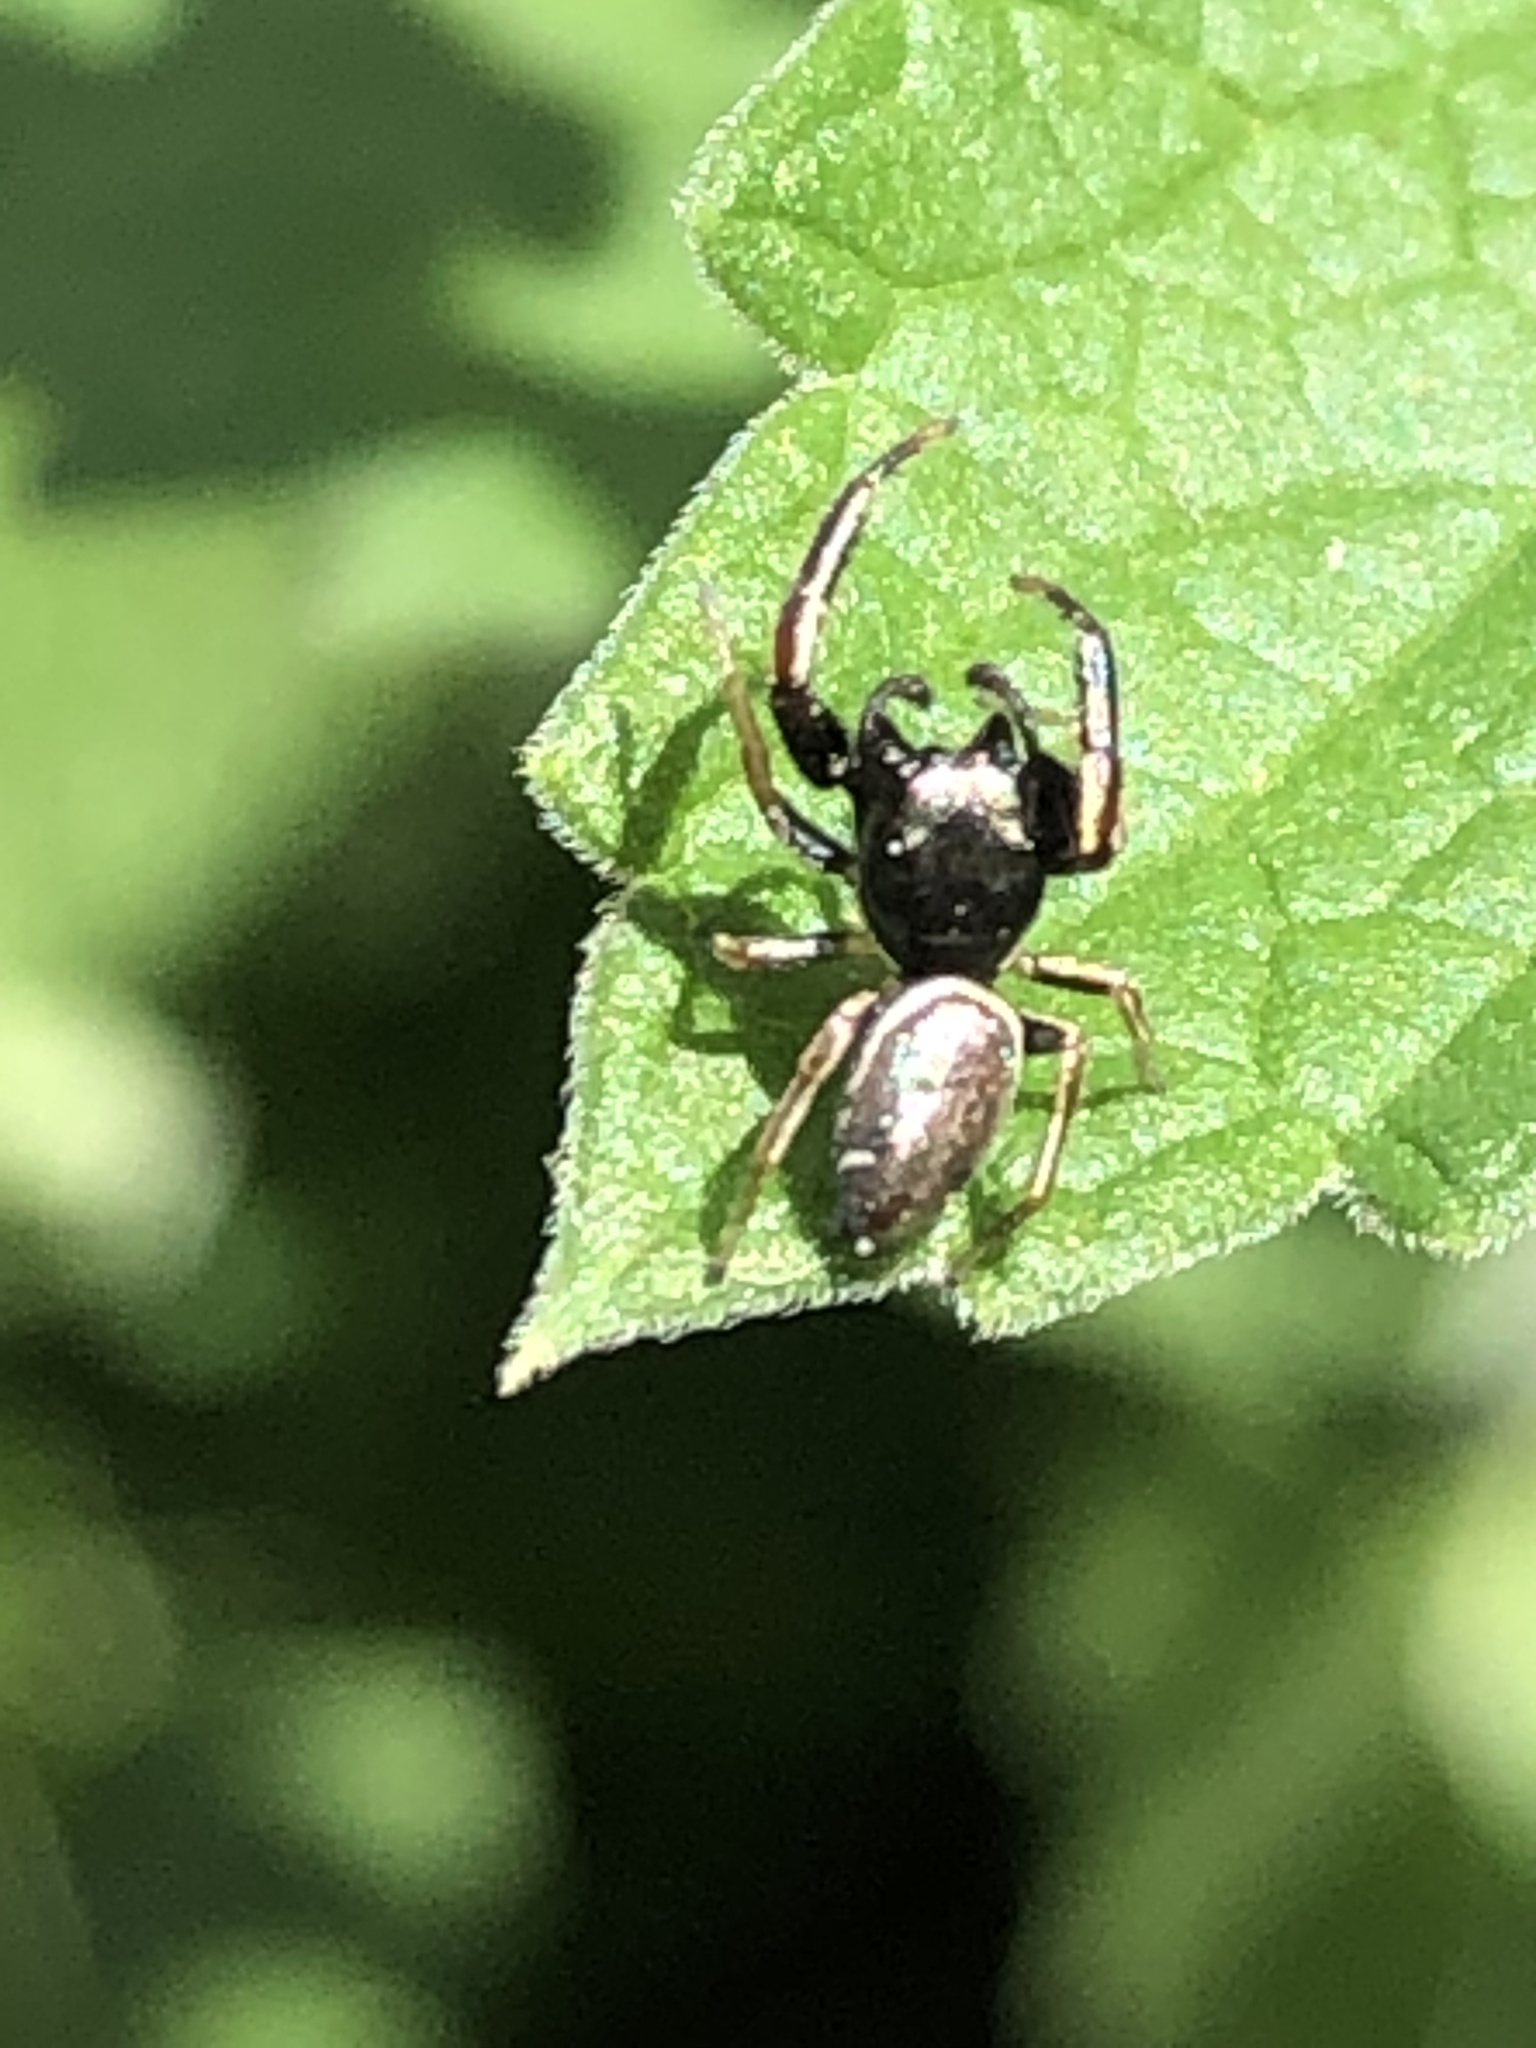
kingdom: Animalia
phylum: Arthropoda
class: Arachnida
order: Araneae
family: Salticidae
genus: Sassacus
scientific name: Sassacus vitis
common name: Jumping spiders
